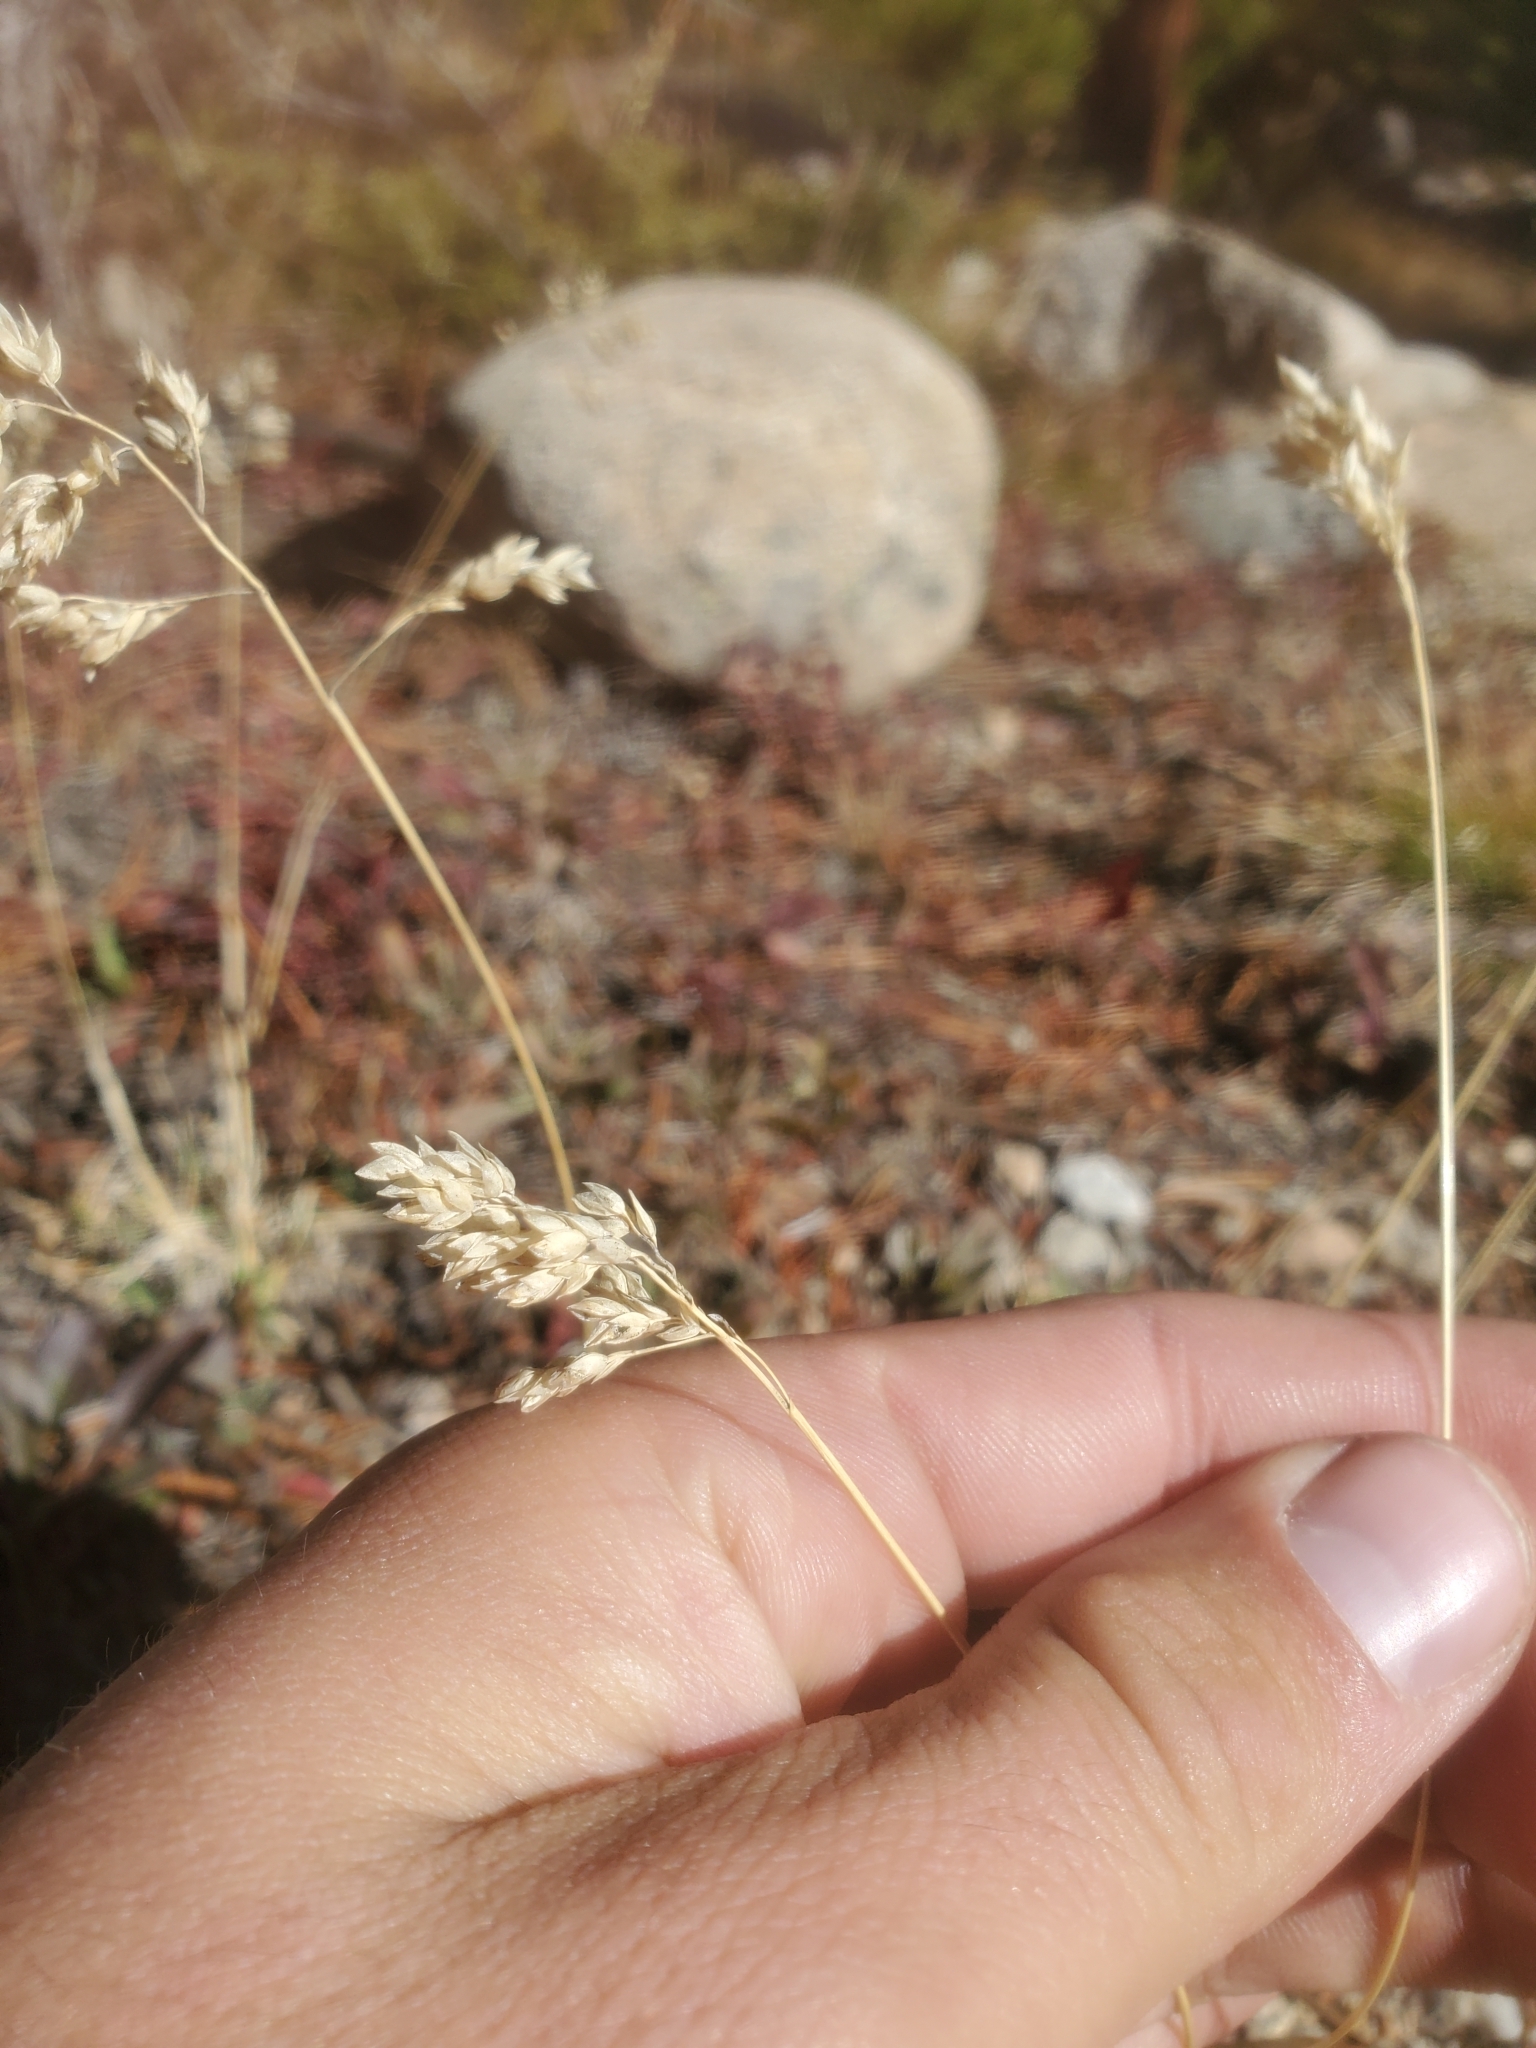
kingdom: Plantae
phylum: Tracheophyta
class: Liliopsida
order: Poales
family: Poaceae
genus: Poa
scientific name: Poa alpina
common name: Alpine bluegrass
